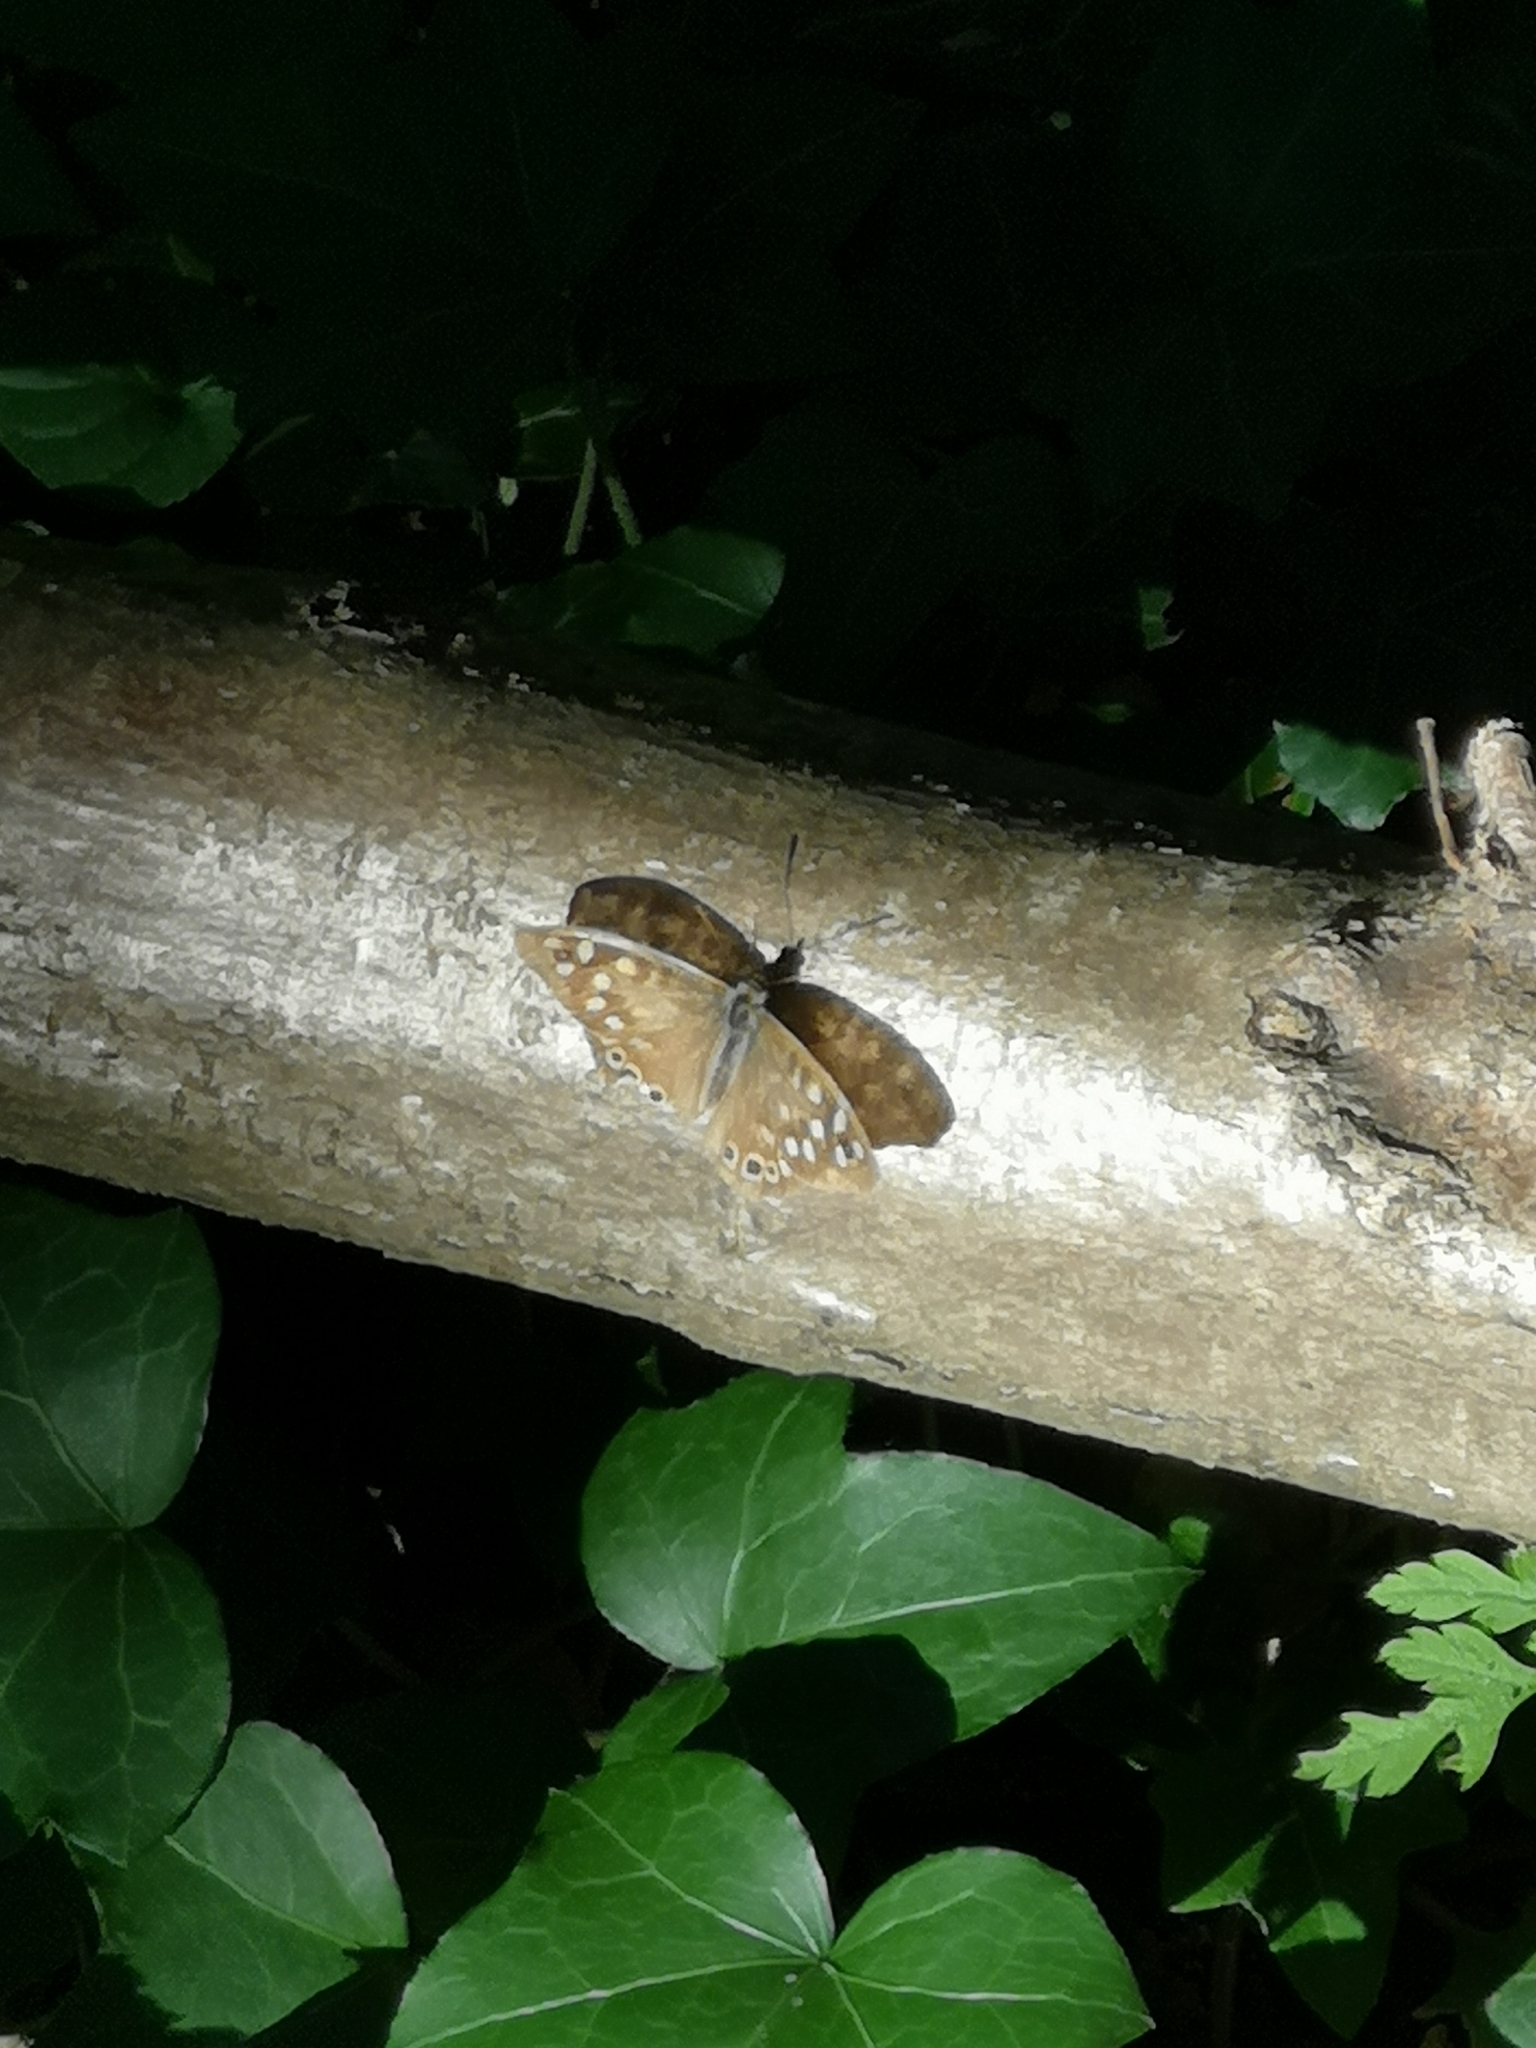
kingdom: Animalia
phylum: Arthropoda
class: Insecta
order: Lepidoptera
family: Nymphalidae
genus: Pararge
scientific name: Pararge aegeria
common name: Speckled wood
